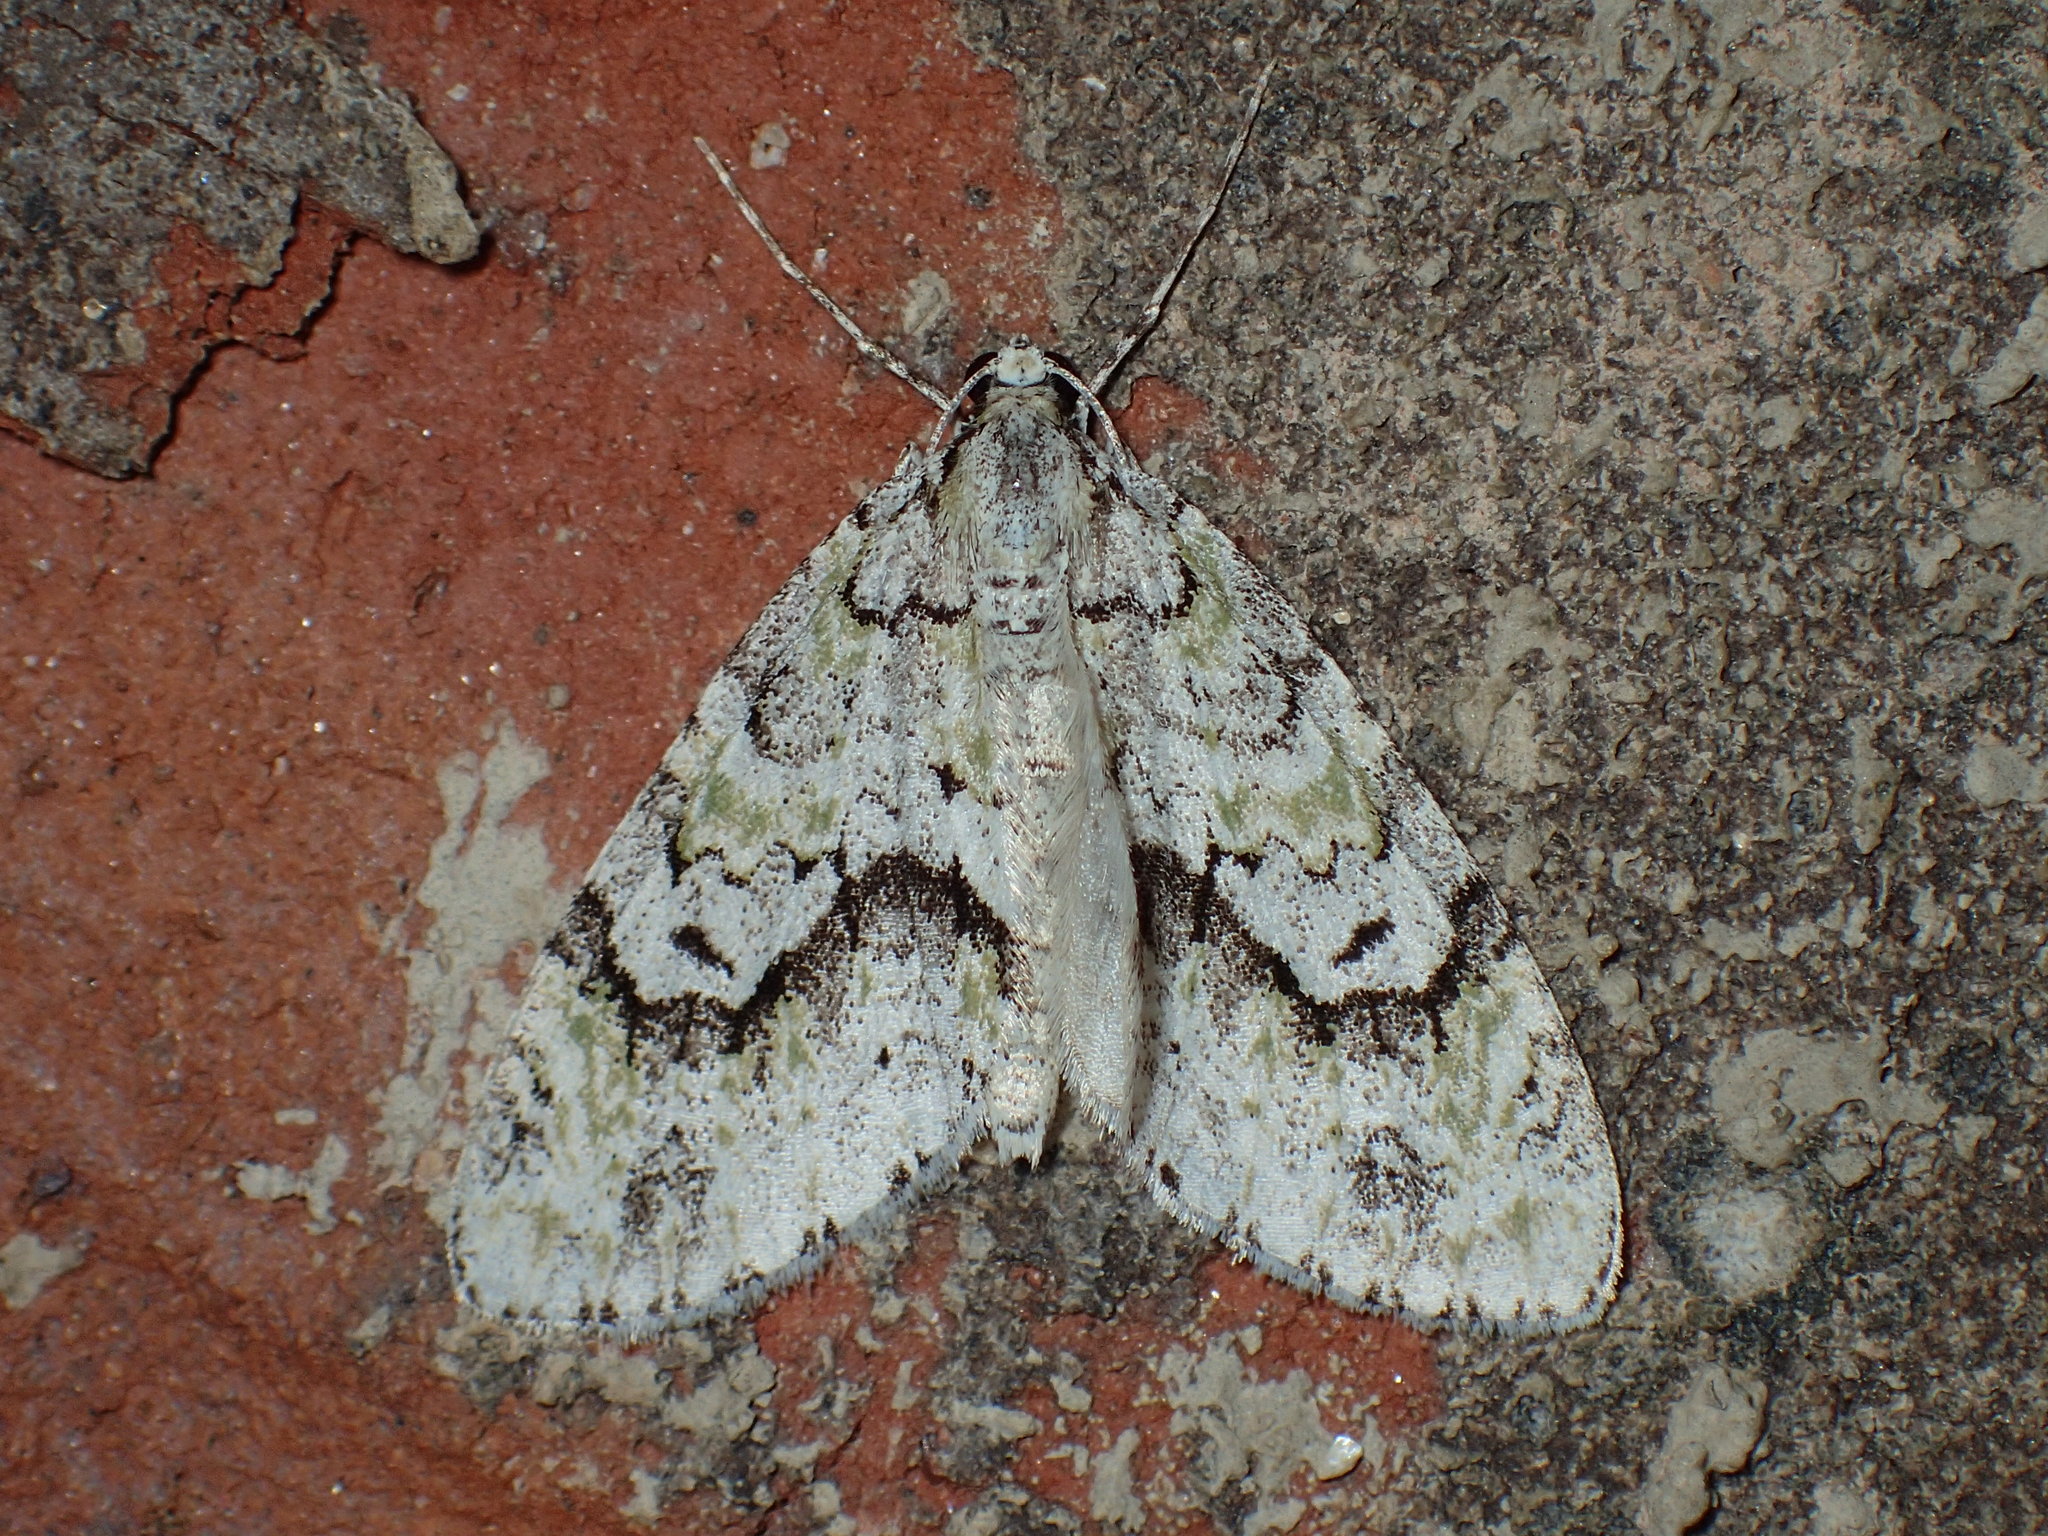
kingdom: Animalia
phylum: Arthropoda
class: Insecta
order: Lepidoptera
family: Geometridae
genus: Cladara
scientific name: Cladara limitaria
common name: Mottled gray carpet
